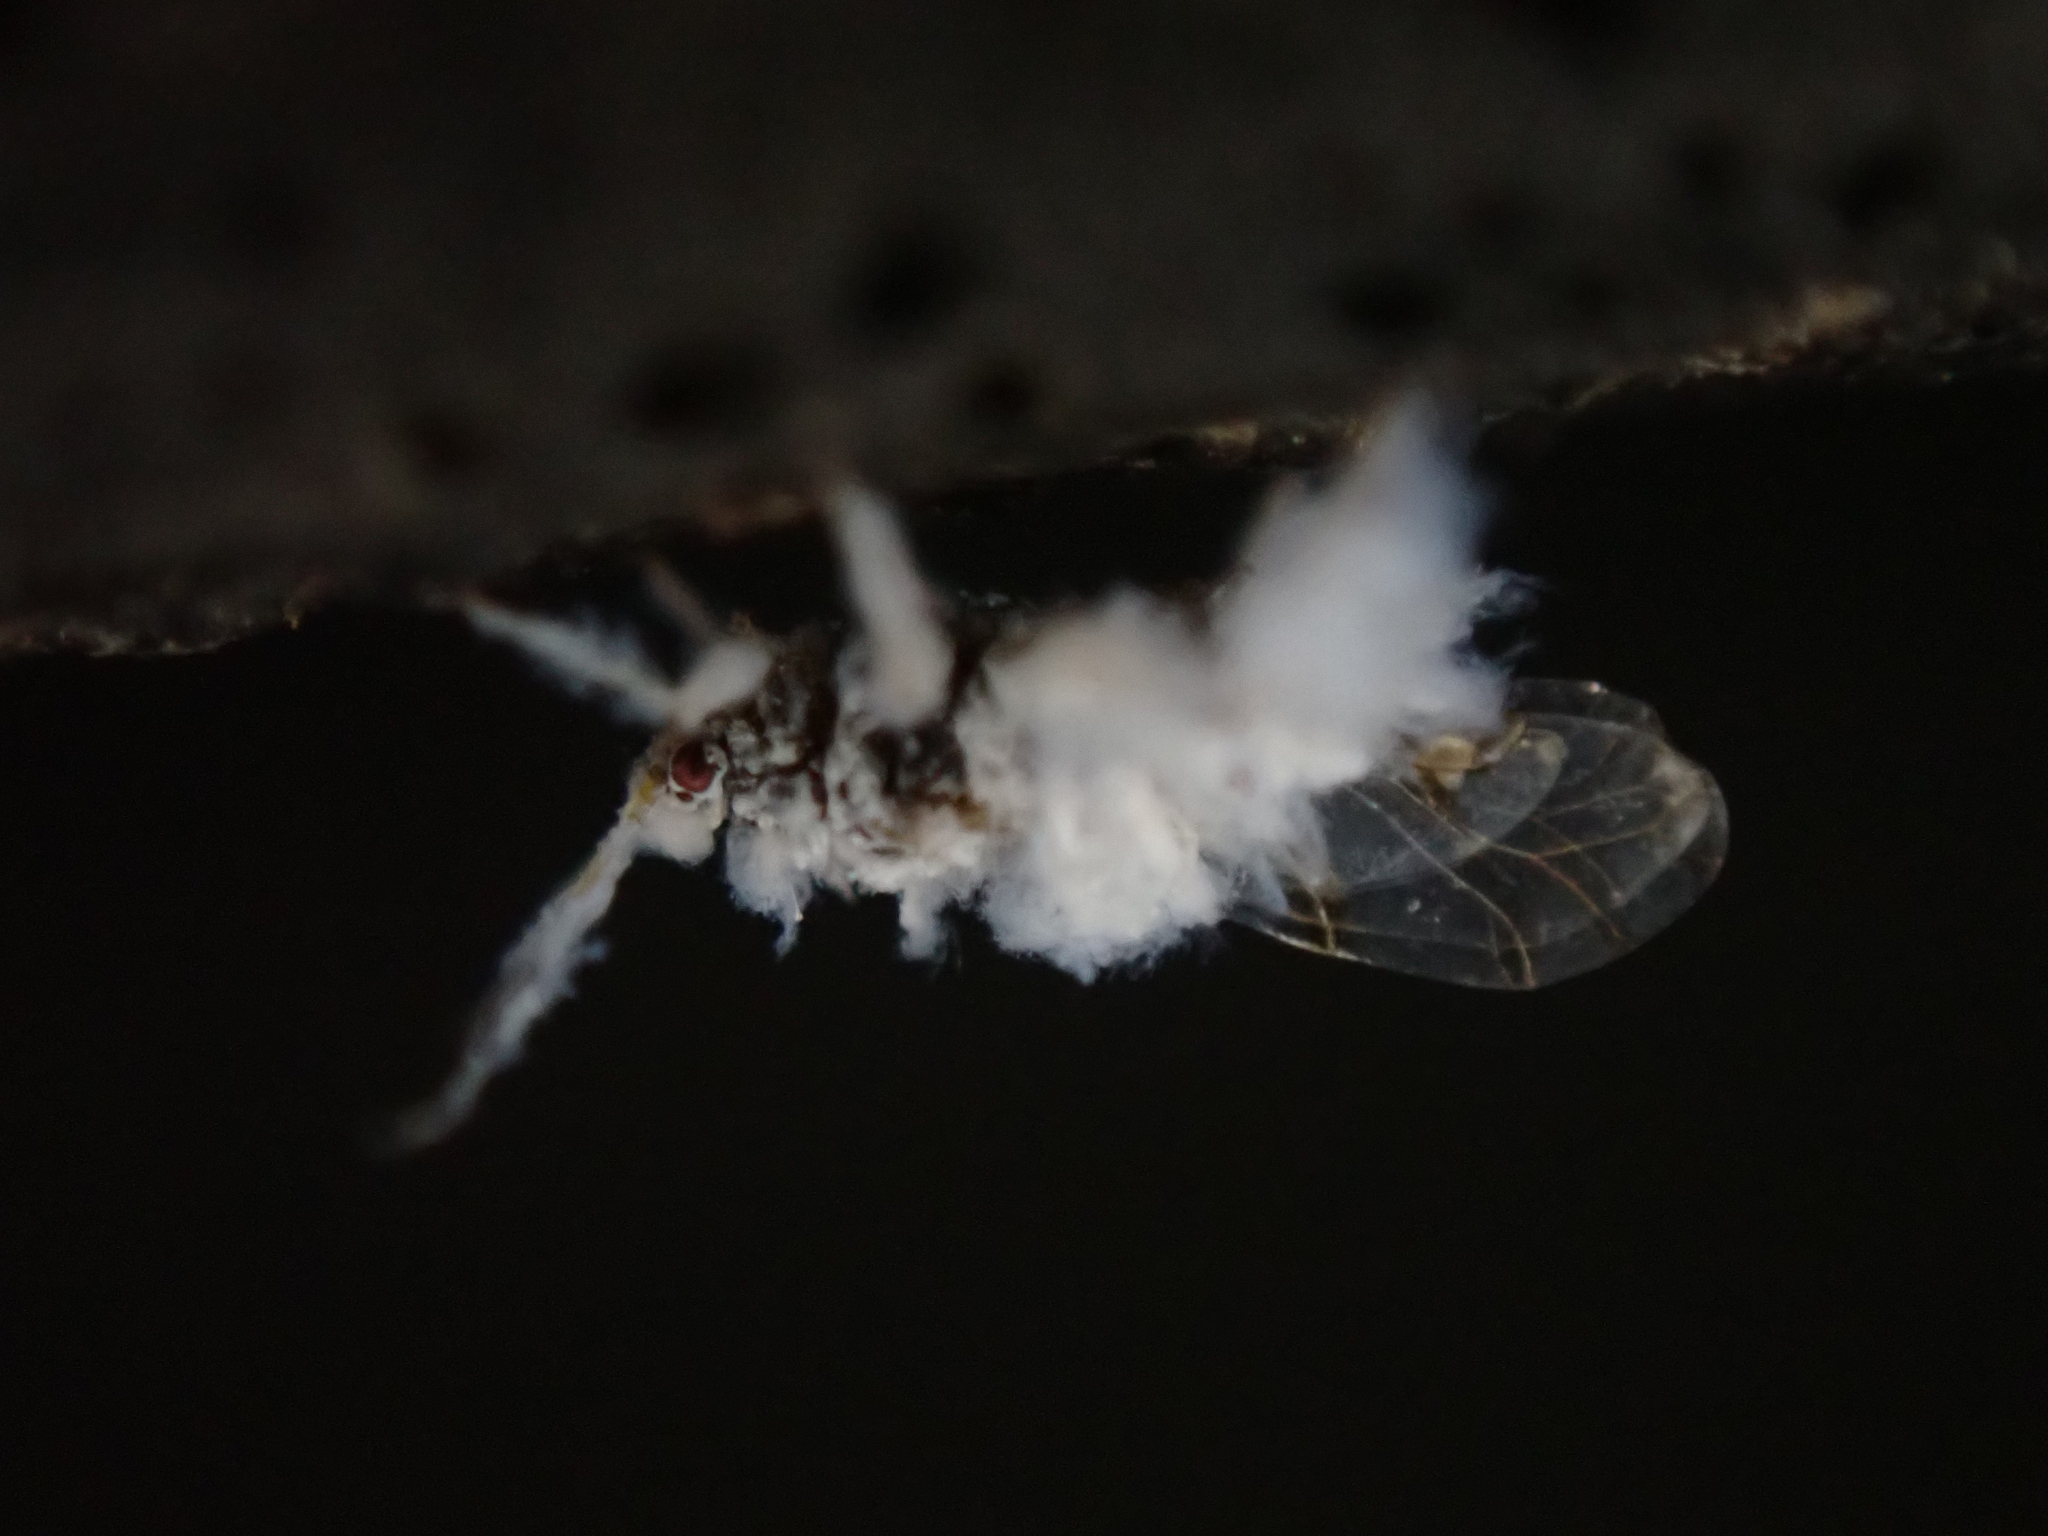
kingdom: Animalia
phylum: Arthropoda
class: Insecta
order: Hemiptera
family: Aphididae
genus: Shivaphis
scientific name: Shivaphis celti
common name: Asian wooly hackberry aphid
